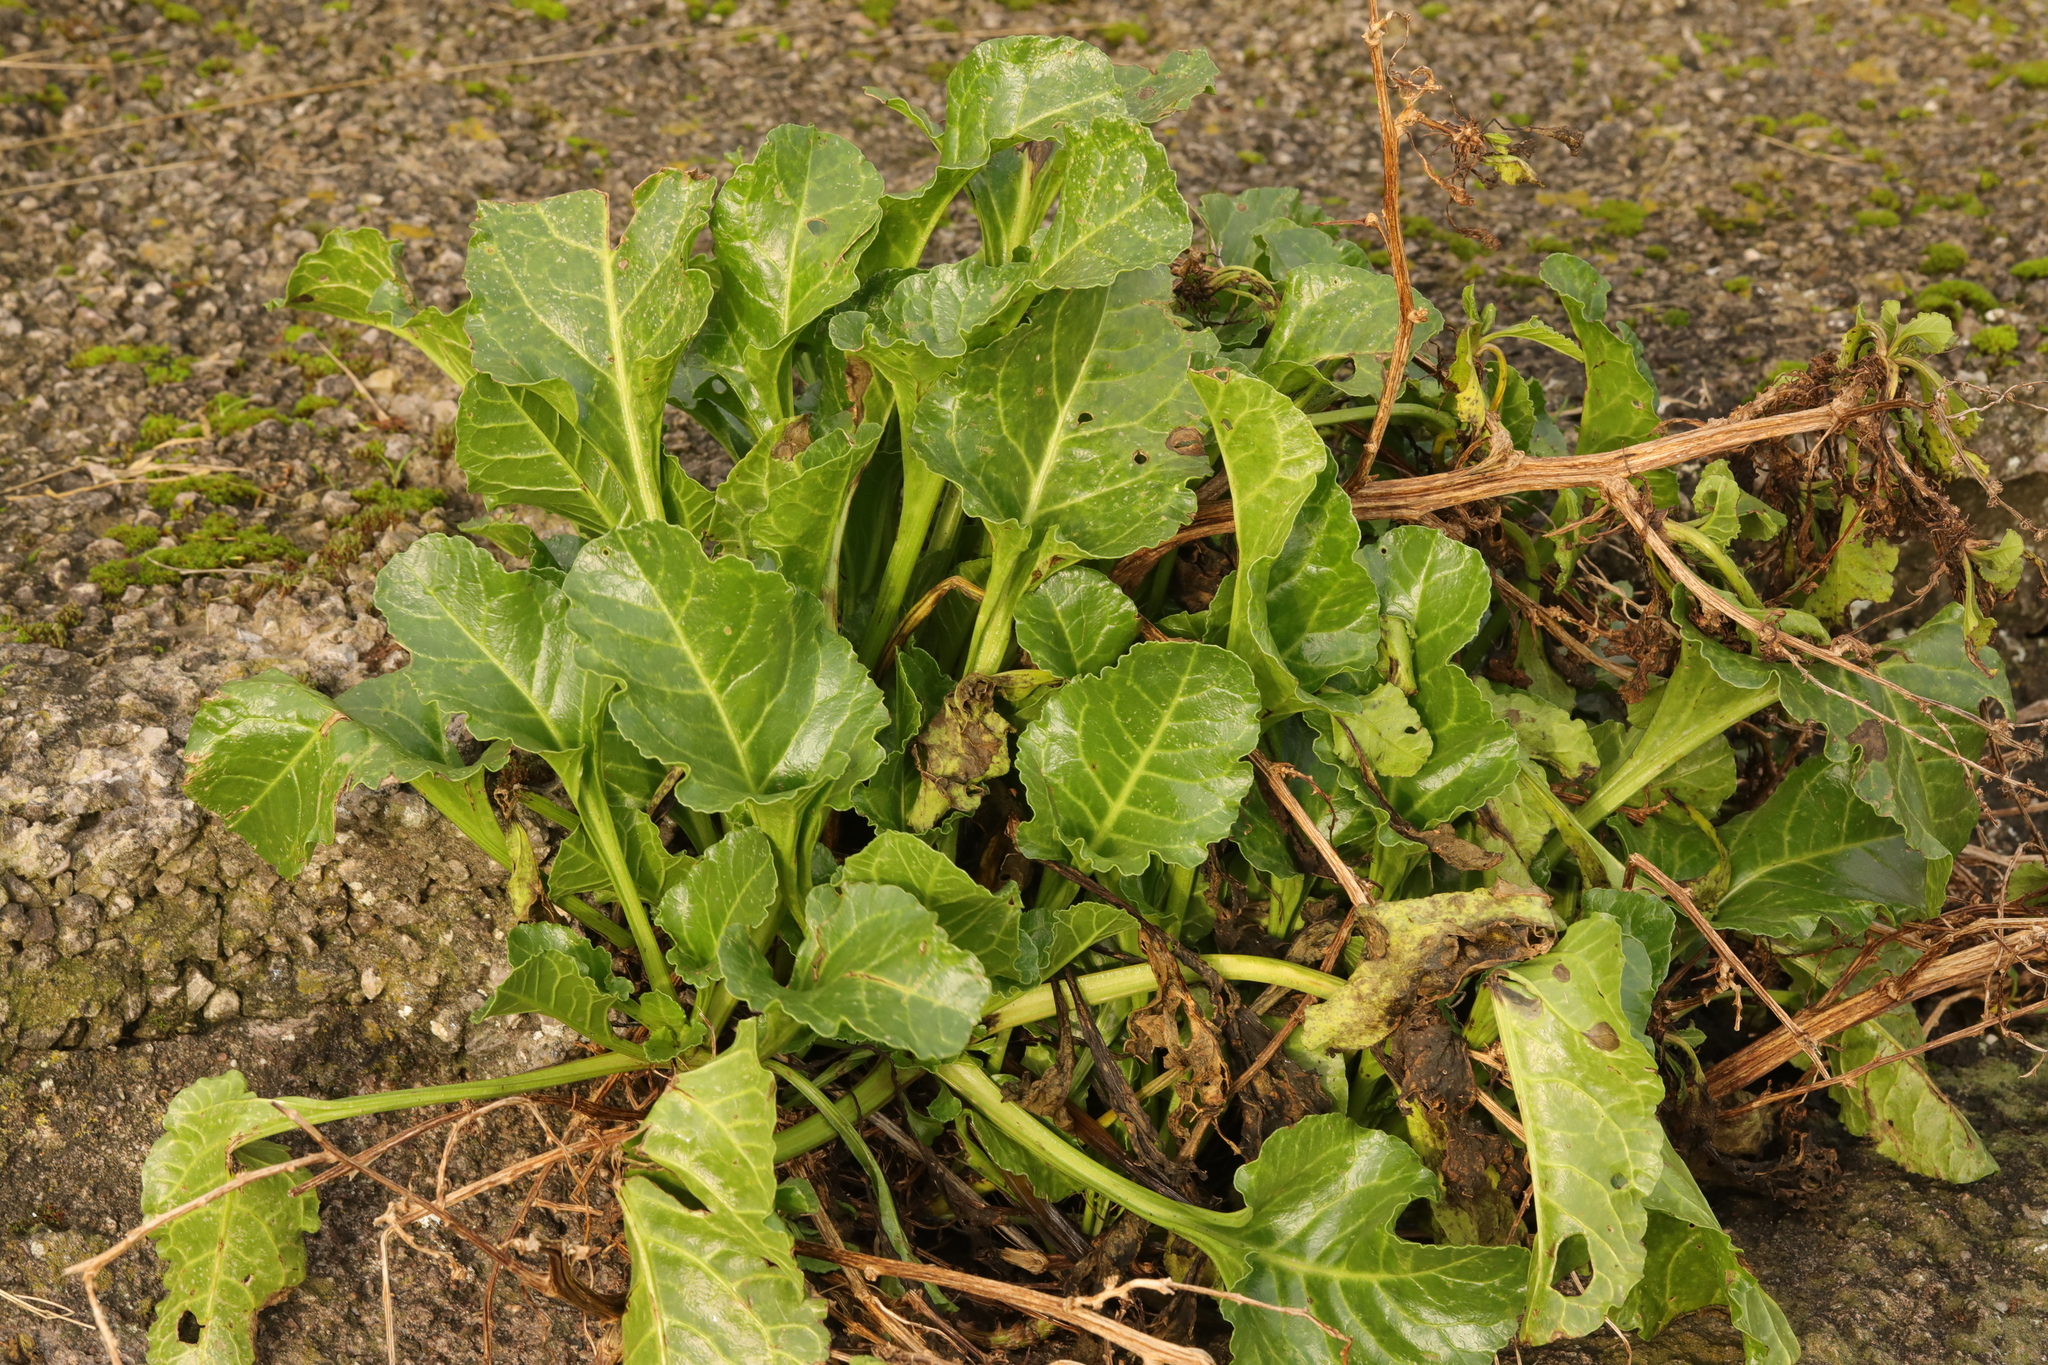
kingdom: Plantae
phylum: Tracheophyta
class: Magnoliopsida
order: Caryophyllales
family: Amaranthaceae
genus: Beta
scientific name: Beta vulgaris
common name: Beet
